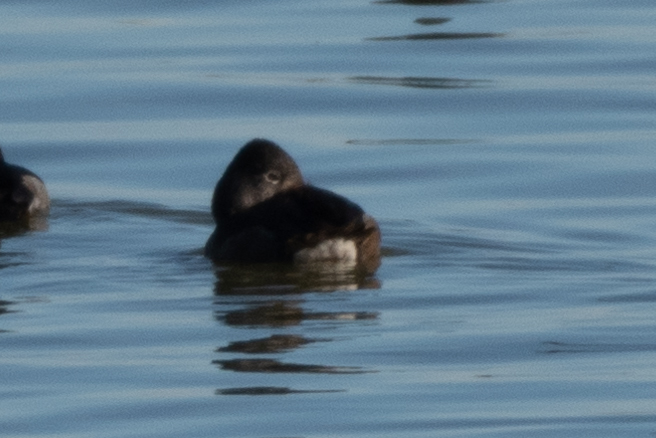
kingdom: Animalia
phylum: Chordata
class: Aves
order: Anseriformes
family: Anatidae
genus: Aythya
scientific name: Aythya collaris
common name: Ring-necked duck
